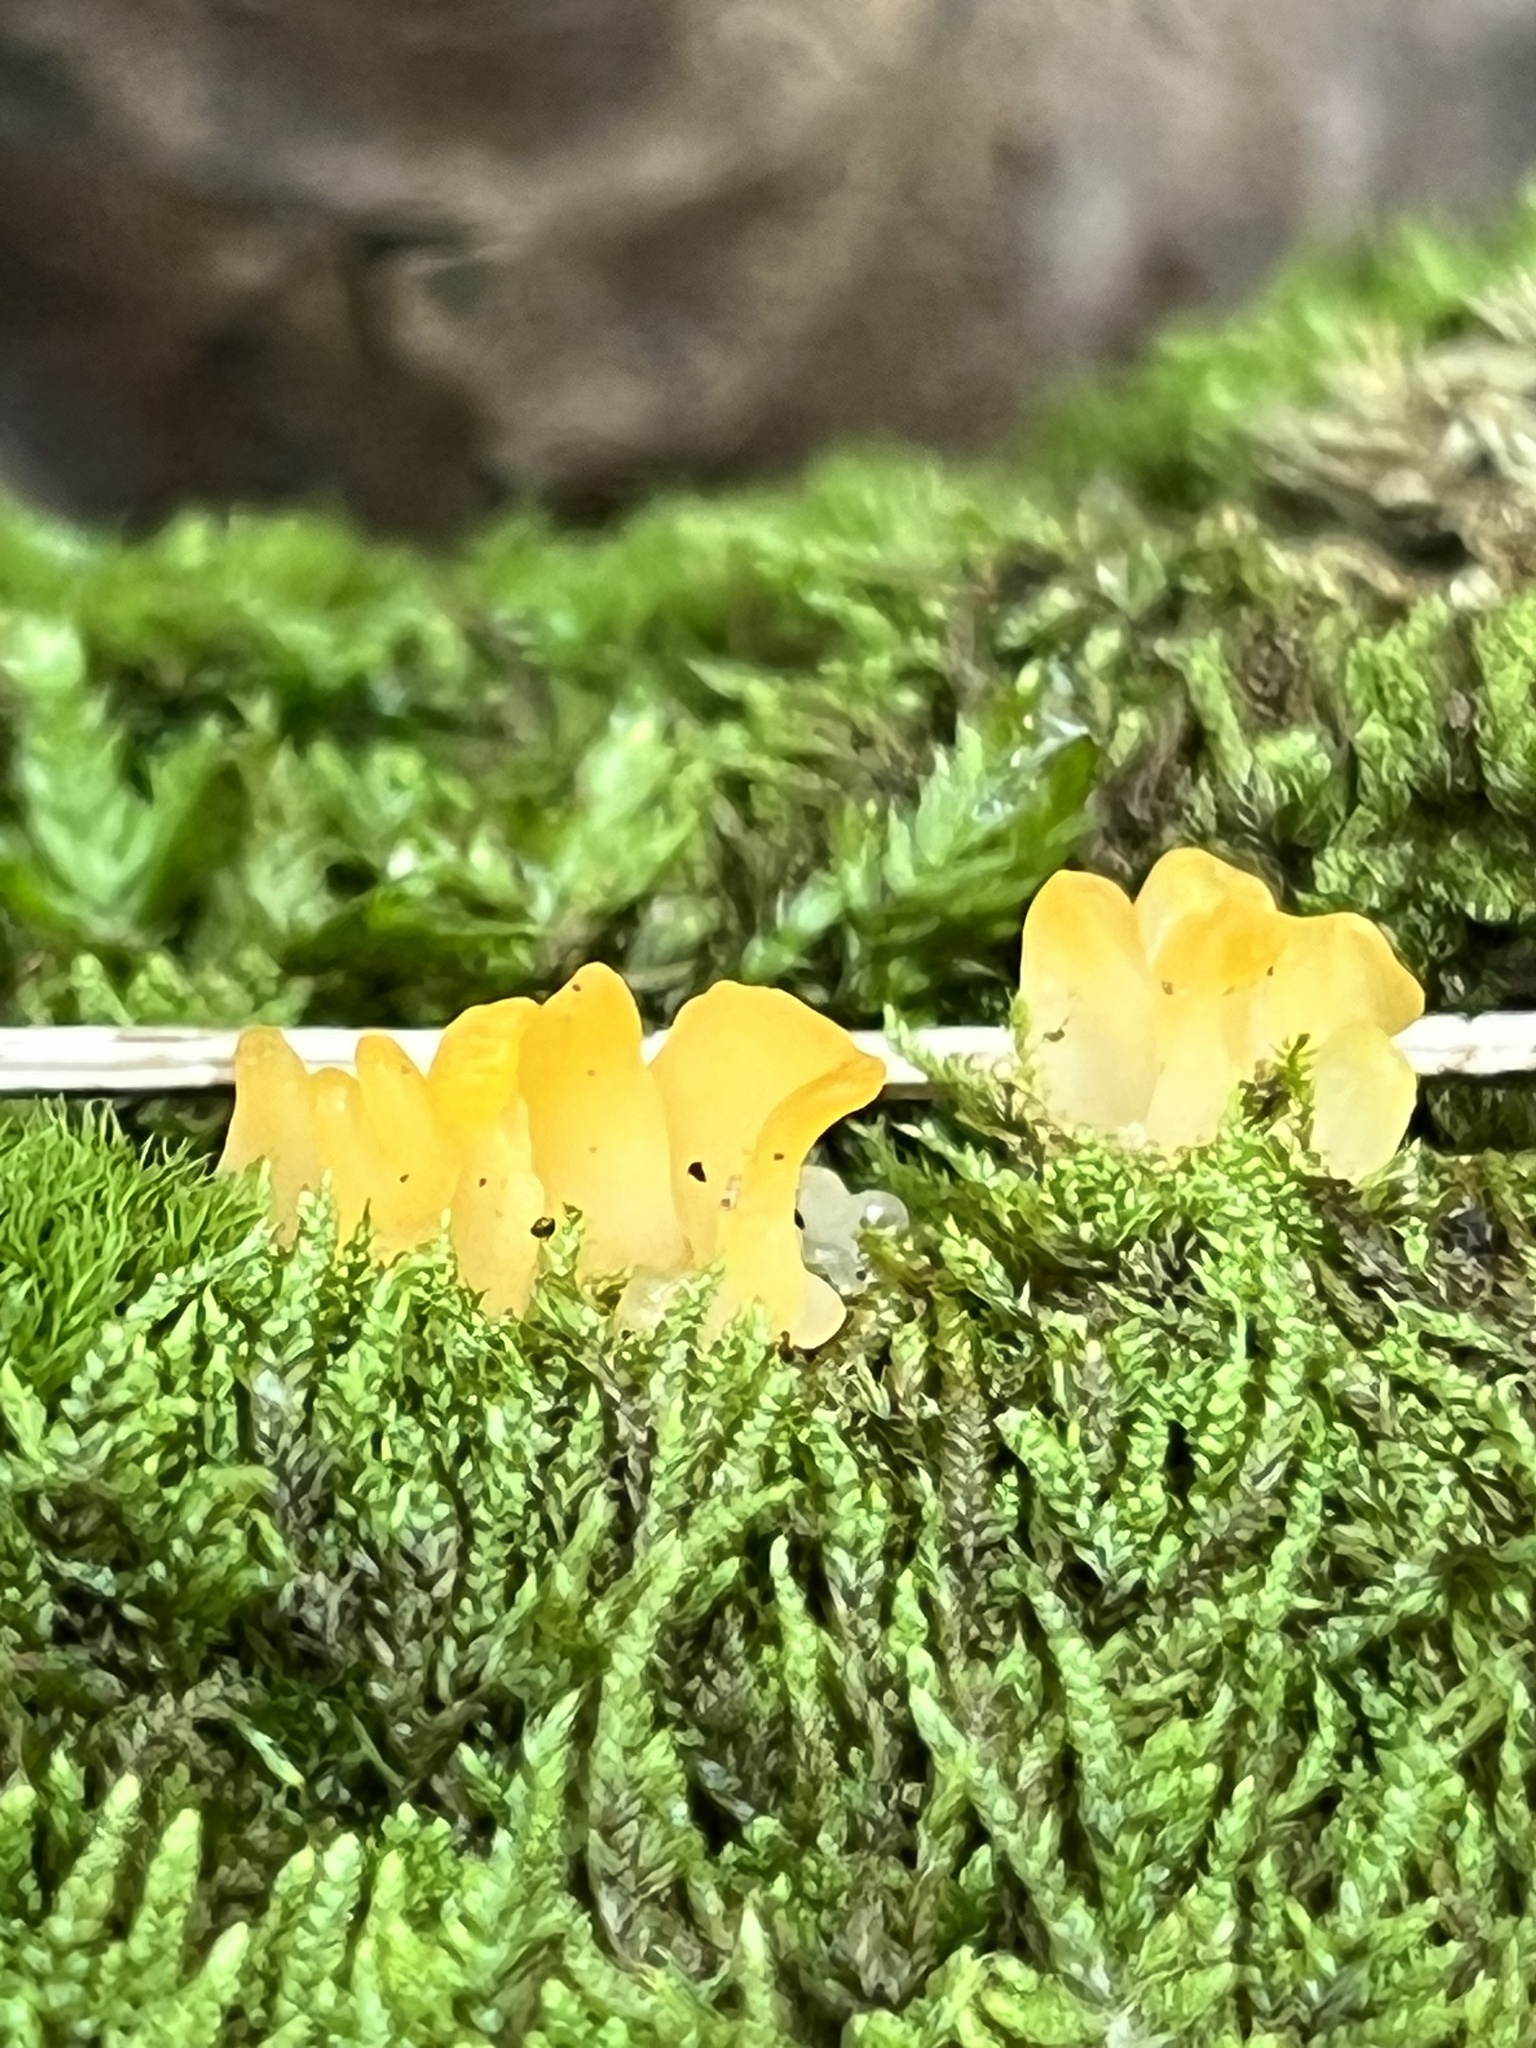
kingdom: Fungi
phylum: Basidiomycota
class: Dacrymycetes
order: Dacrymycetales
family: Dacrymycetaceae
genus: Dacrymyces
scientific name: Dacrymyces spathularius
